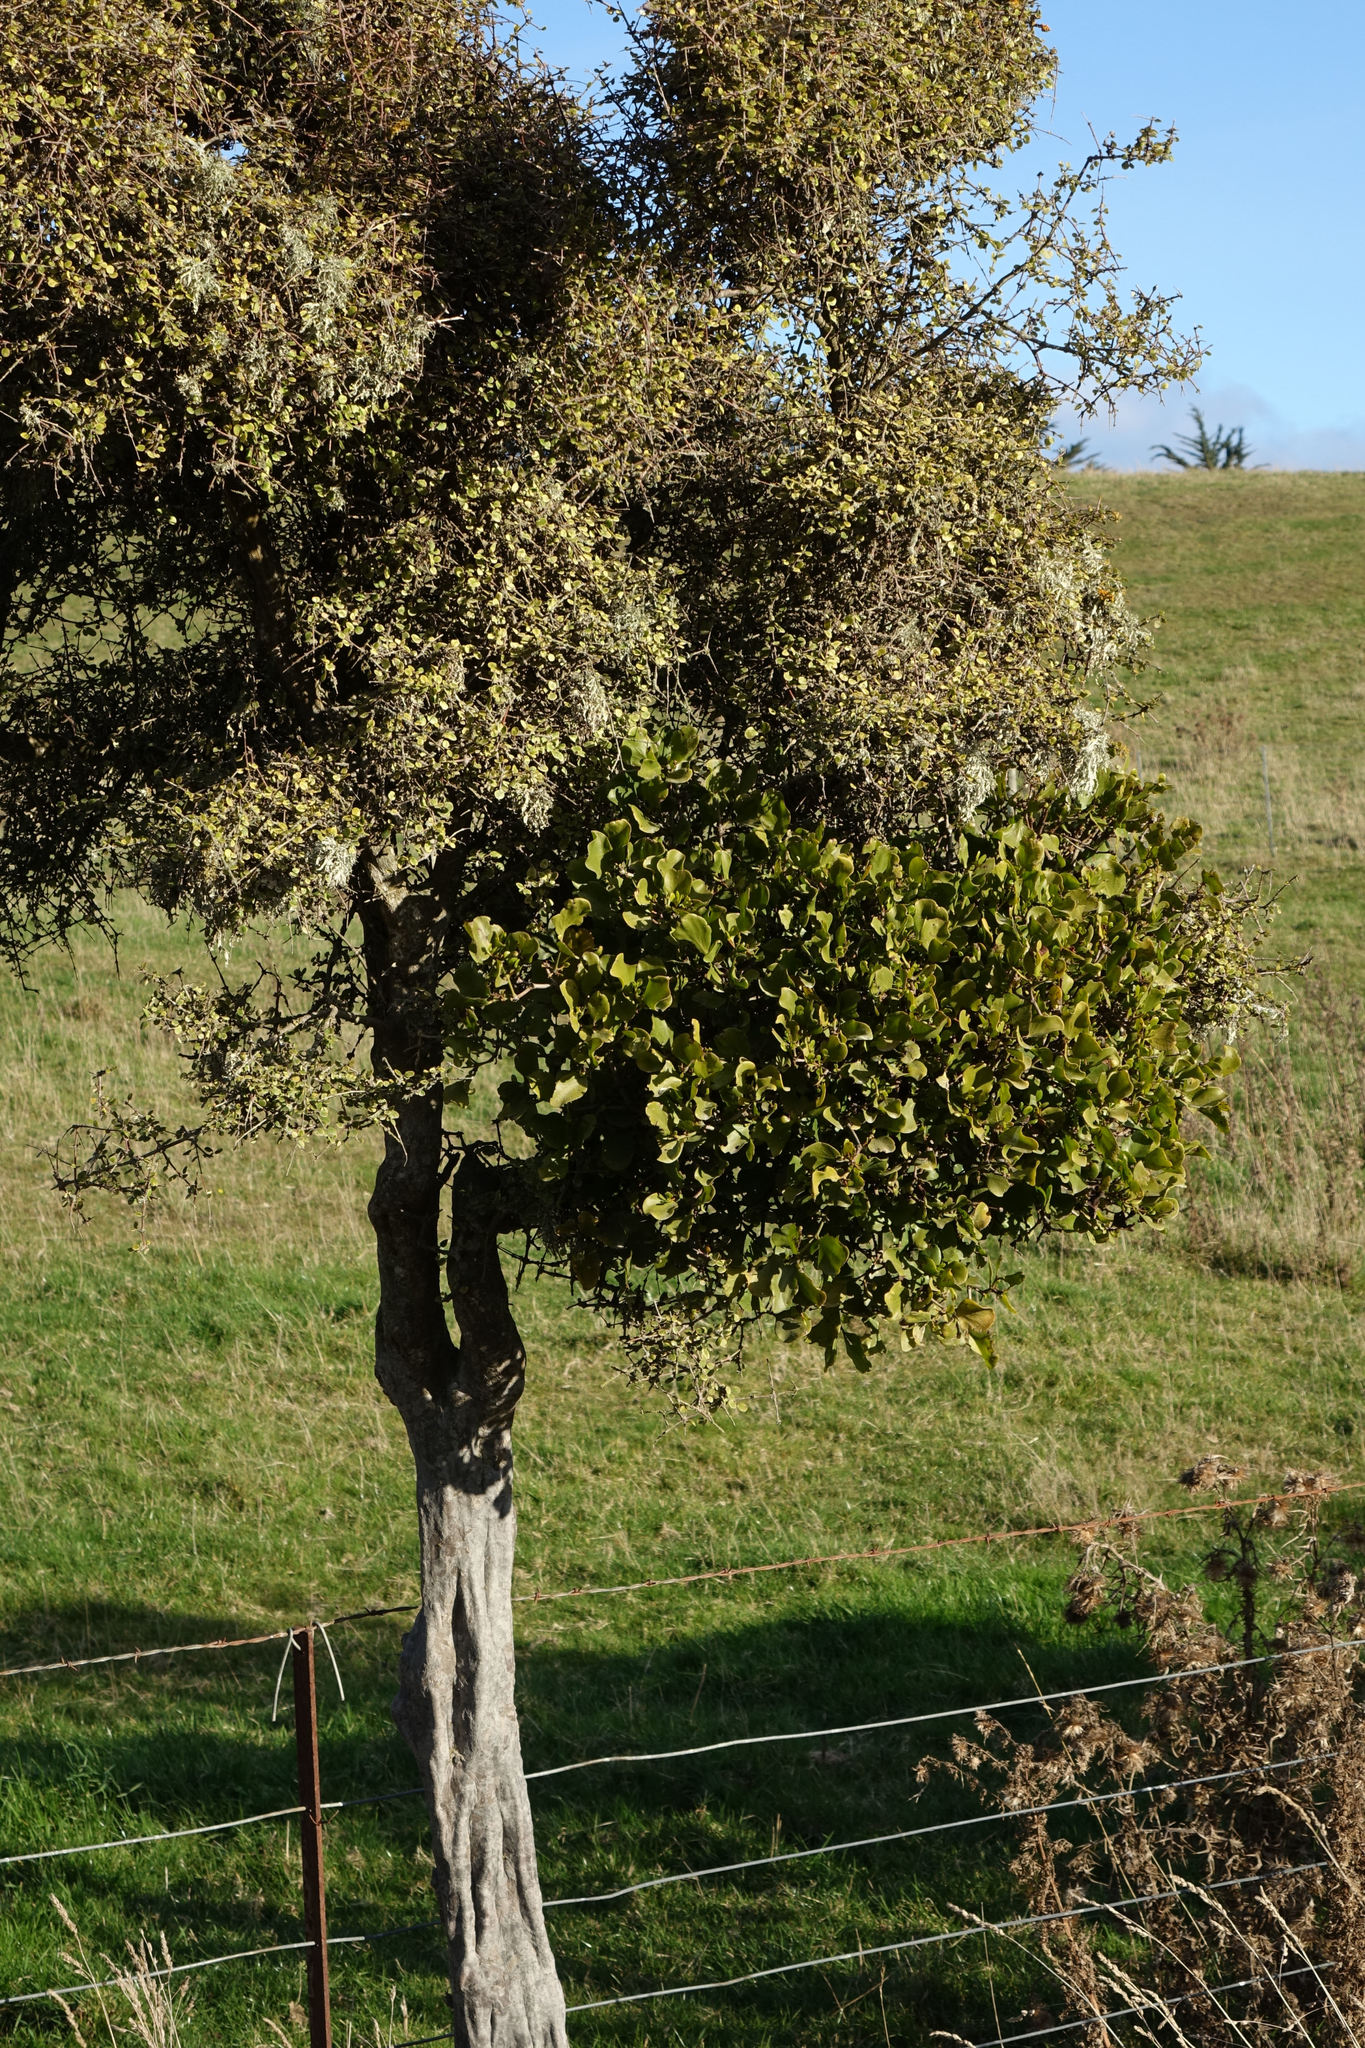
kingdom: Plantae
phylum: Tracheophyta
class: Magnoliopsida
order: Santalales
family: Loranthaceae
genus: Ileostylus
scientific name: Ileostylus micranthus
